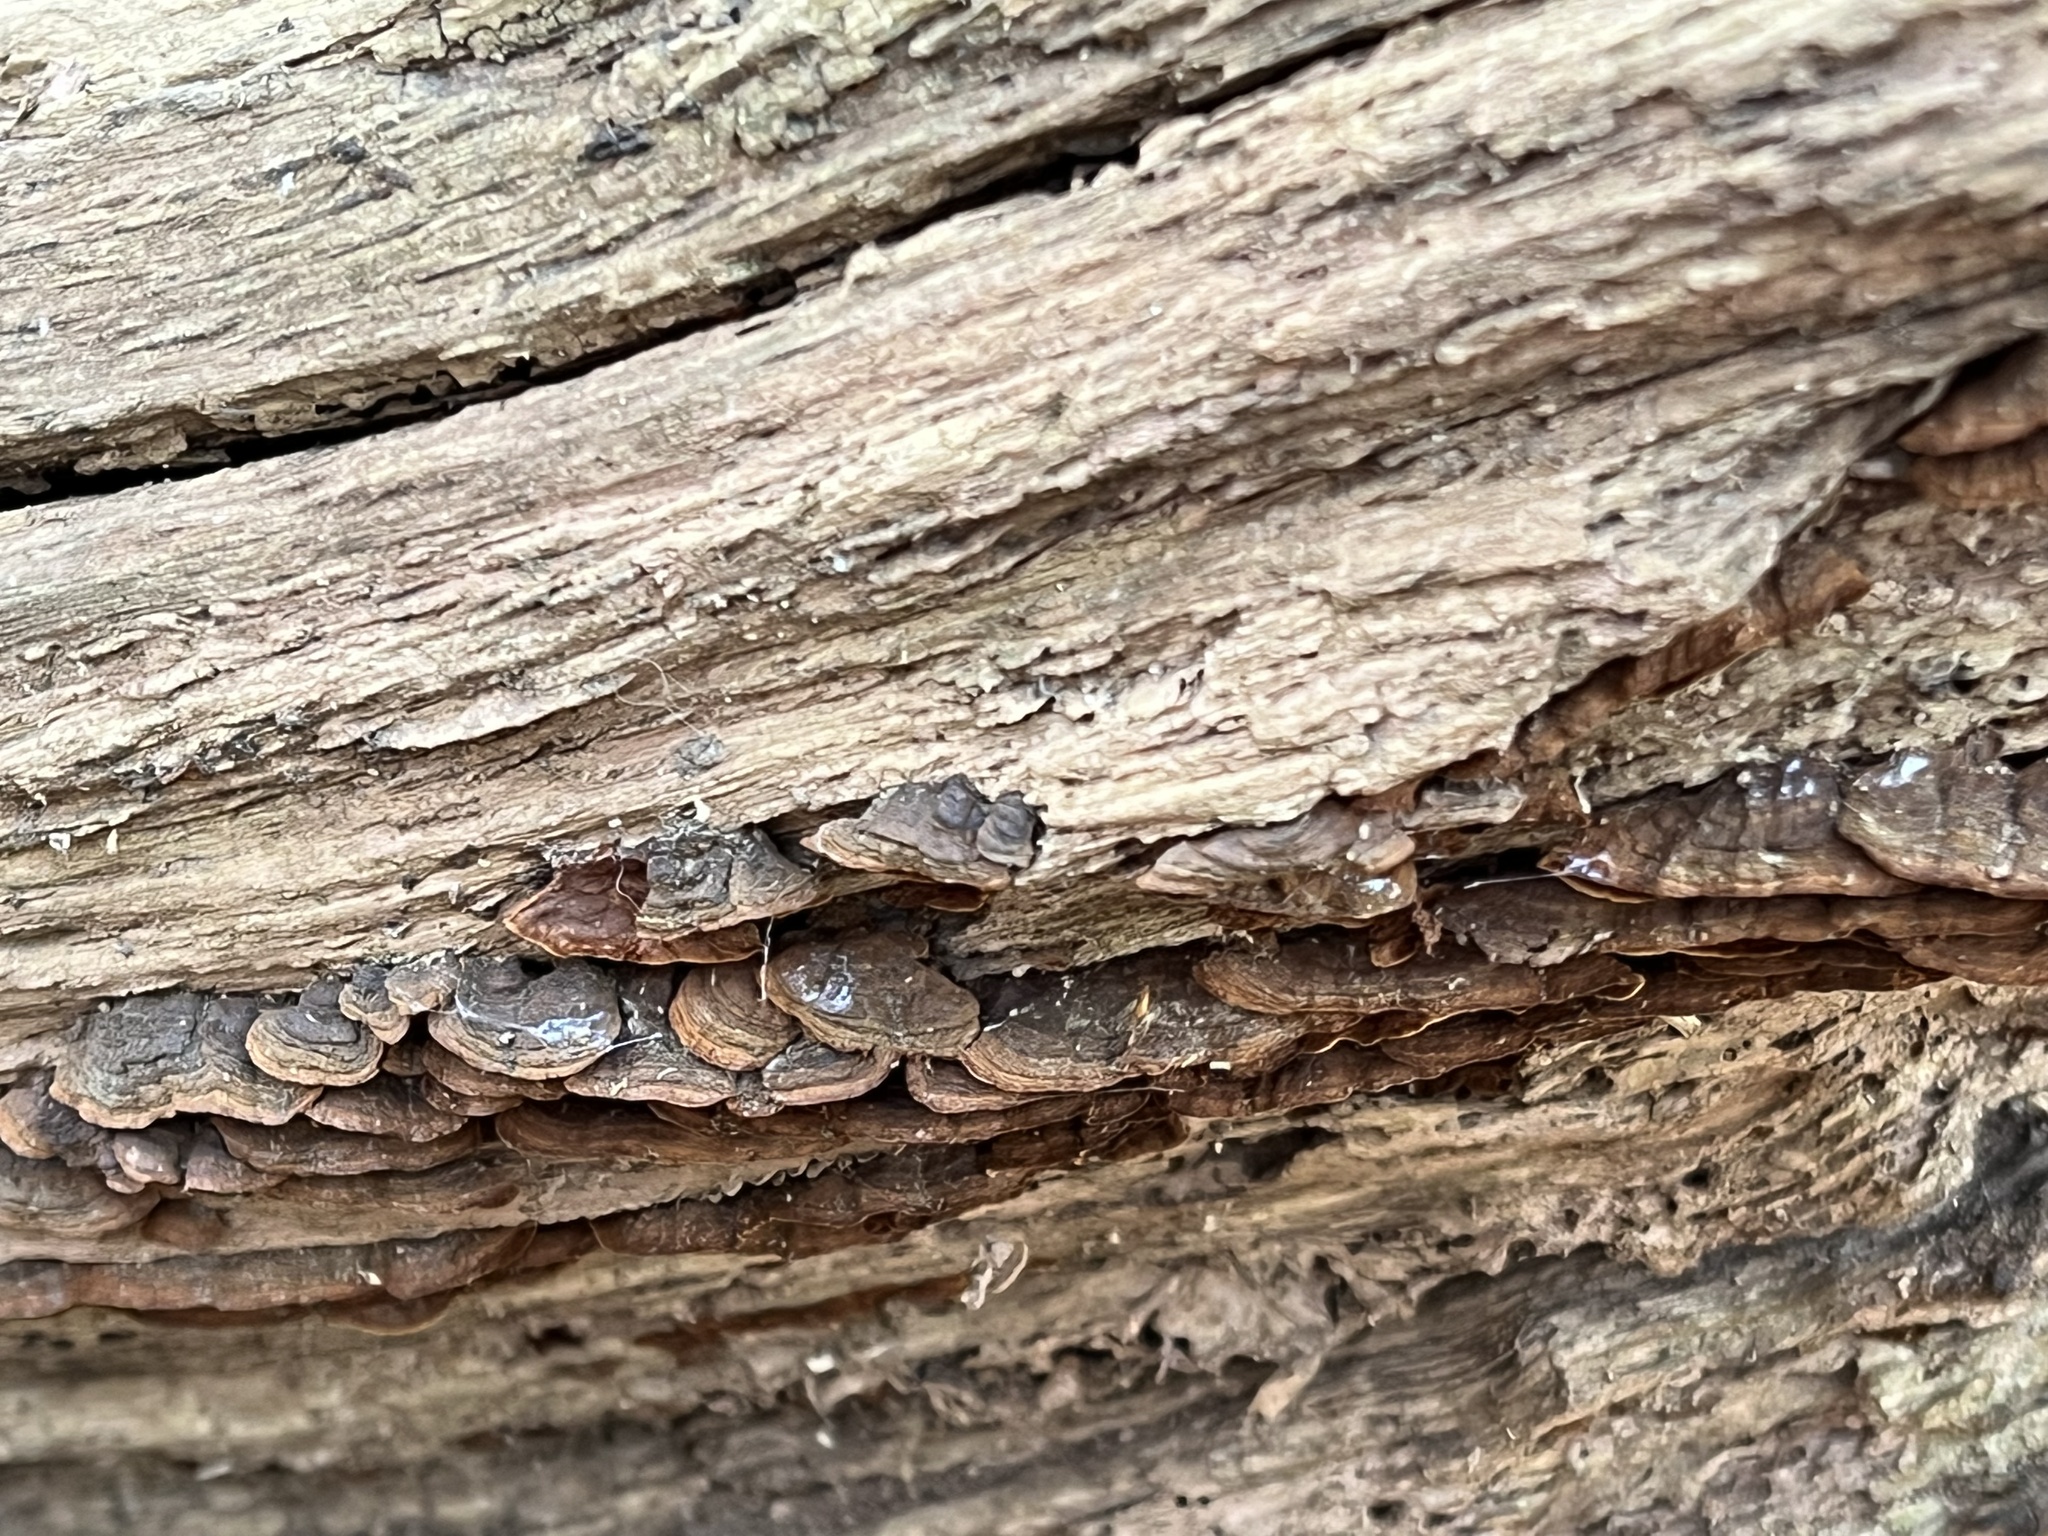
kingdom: Fungi
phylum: Basidiomycota
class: Agaricomycetes
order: Hymenochaetales
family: Hymenochaetaceae
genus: Hymenochaete
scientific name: Hymenochaete rubiginosa
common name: Oak curtain crust
